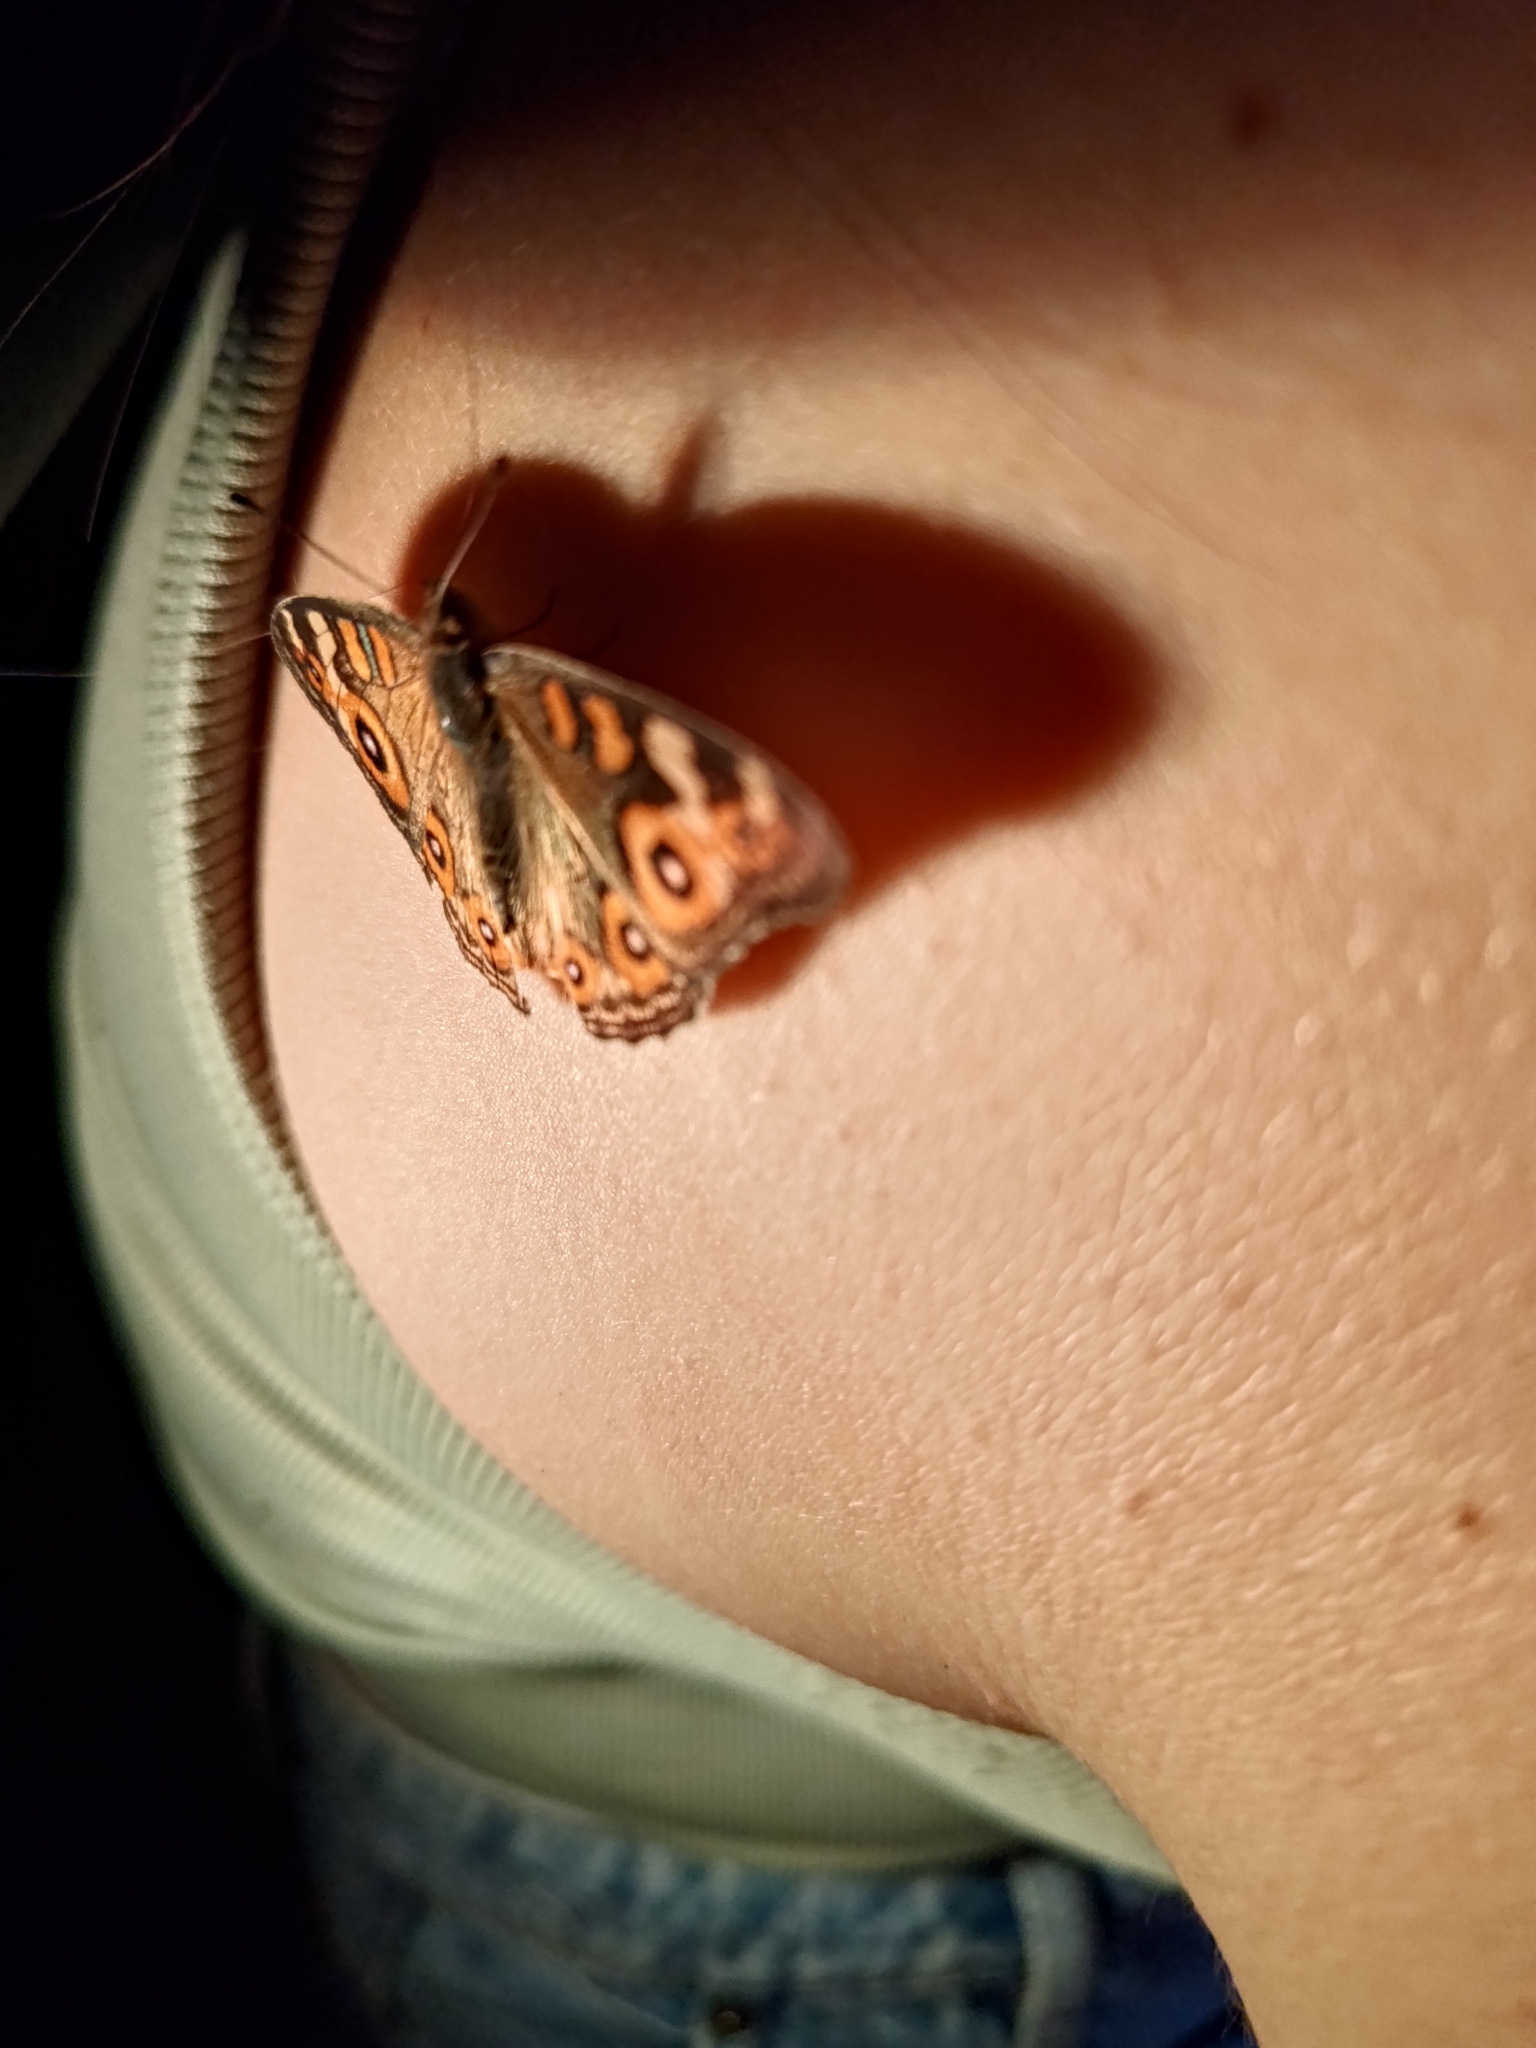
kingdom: Animalia
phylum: Arthropoda
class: Insecta
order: Lepidoptera
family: Nymphalidae
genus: Junonia
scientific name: Junonia villida
